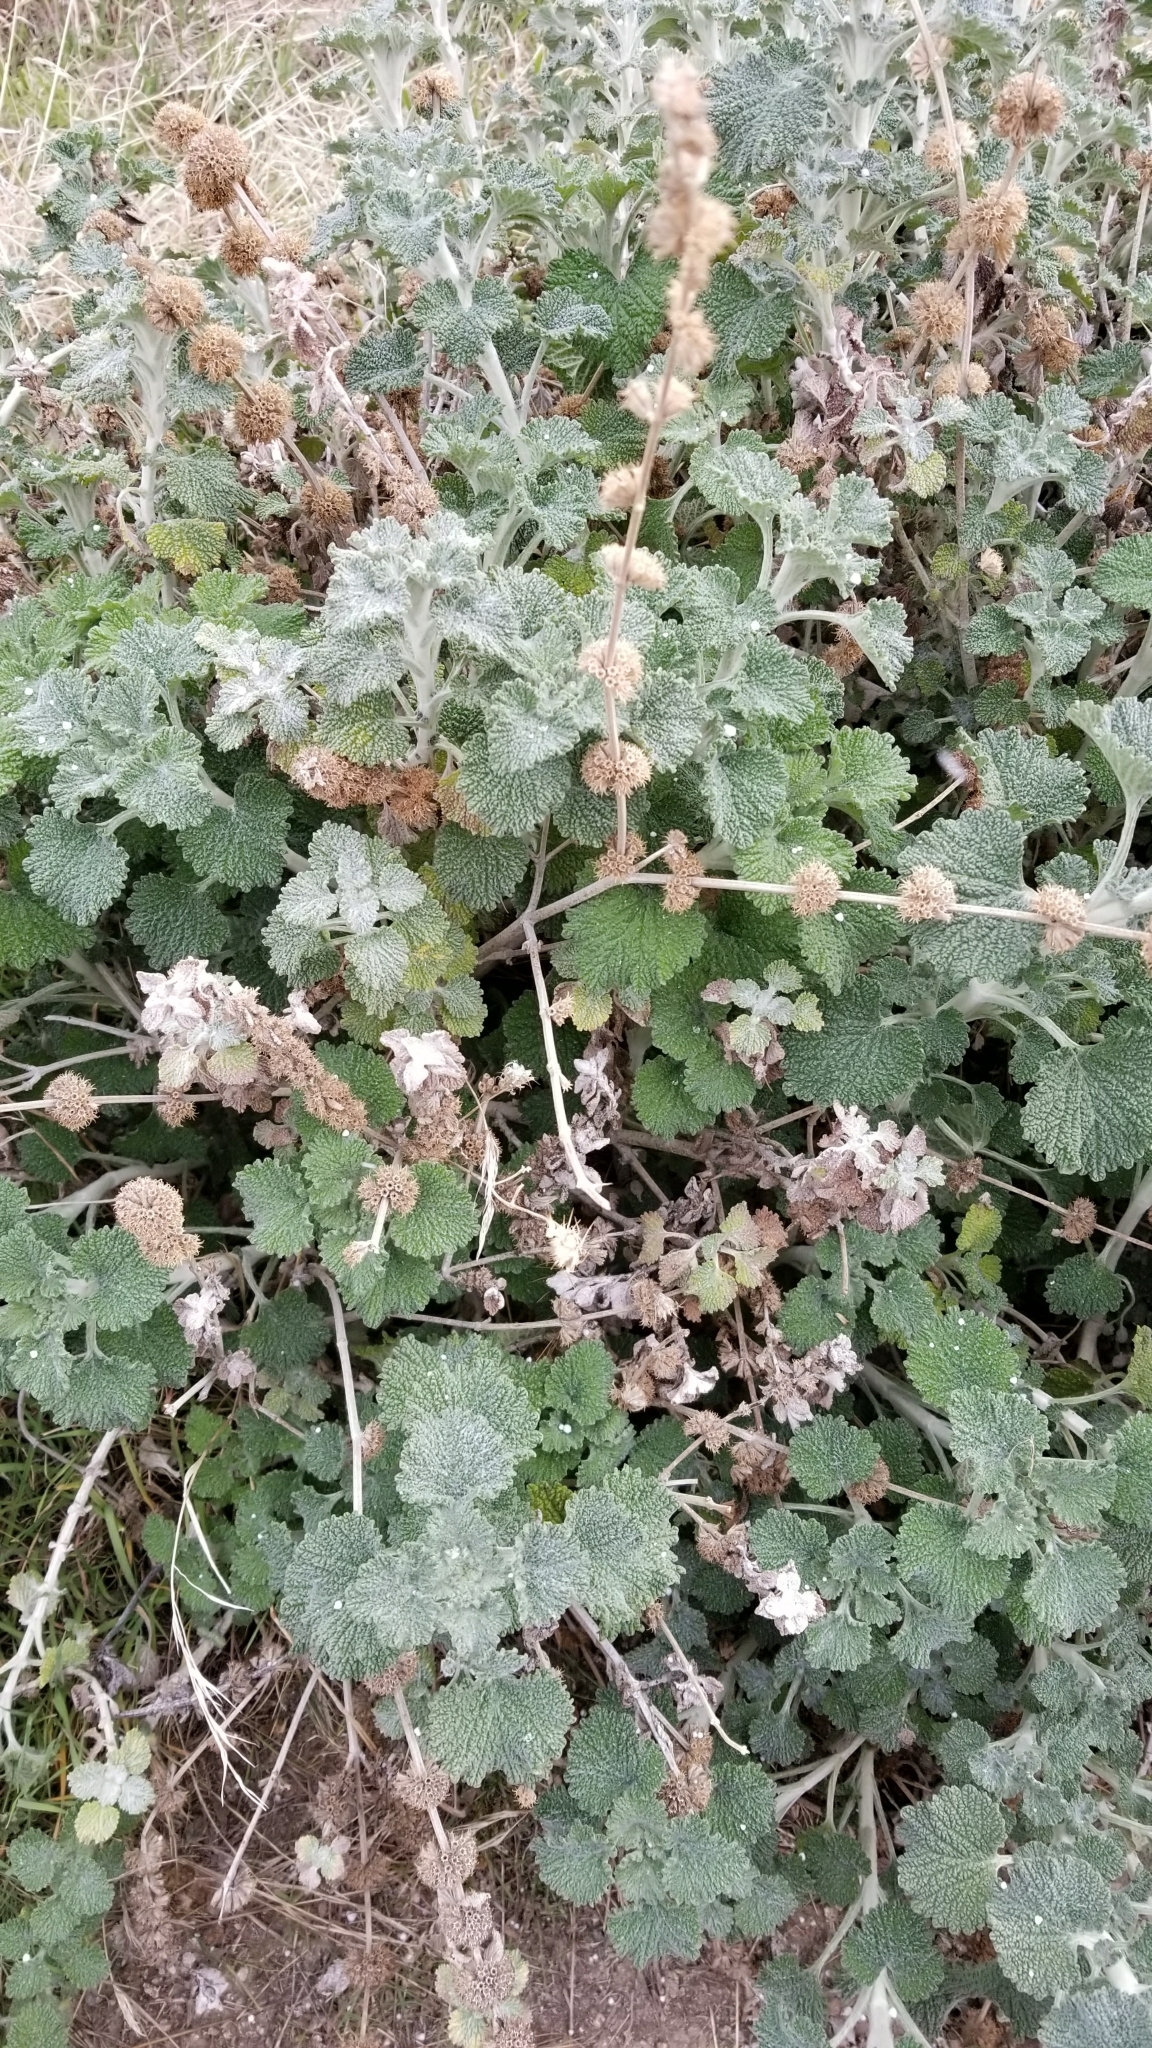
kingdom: Plantae
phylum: Tracheophyta
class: Magnoliopsida
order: Lamiales
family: Lamiaceae
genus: Marrubium
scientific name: Marrubium vulgare
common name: Horehound
